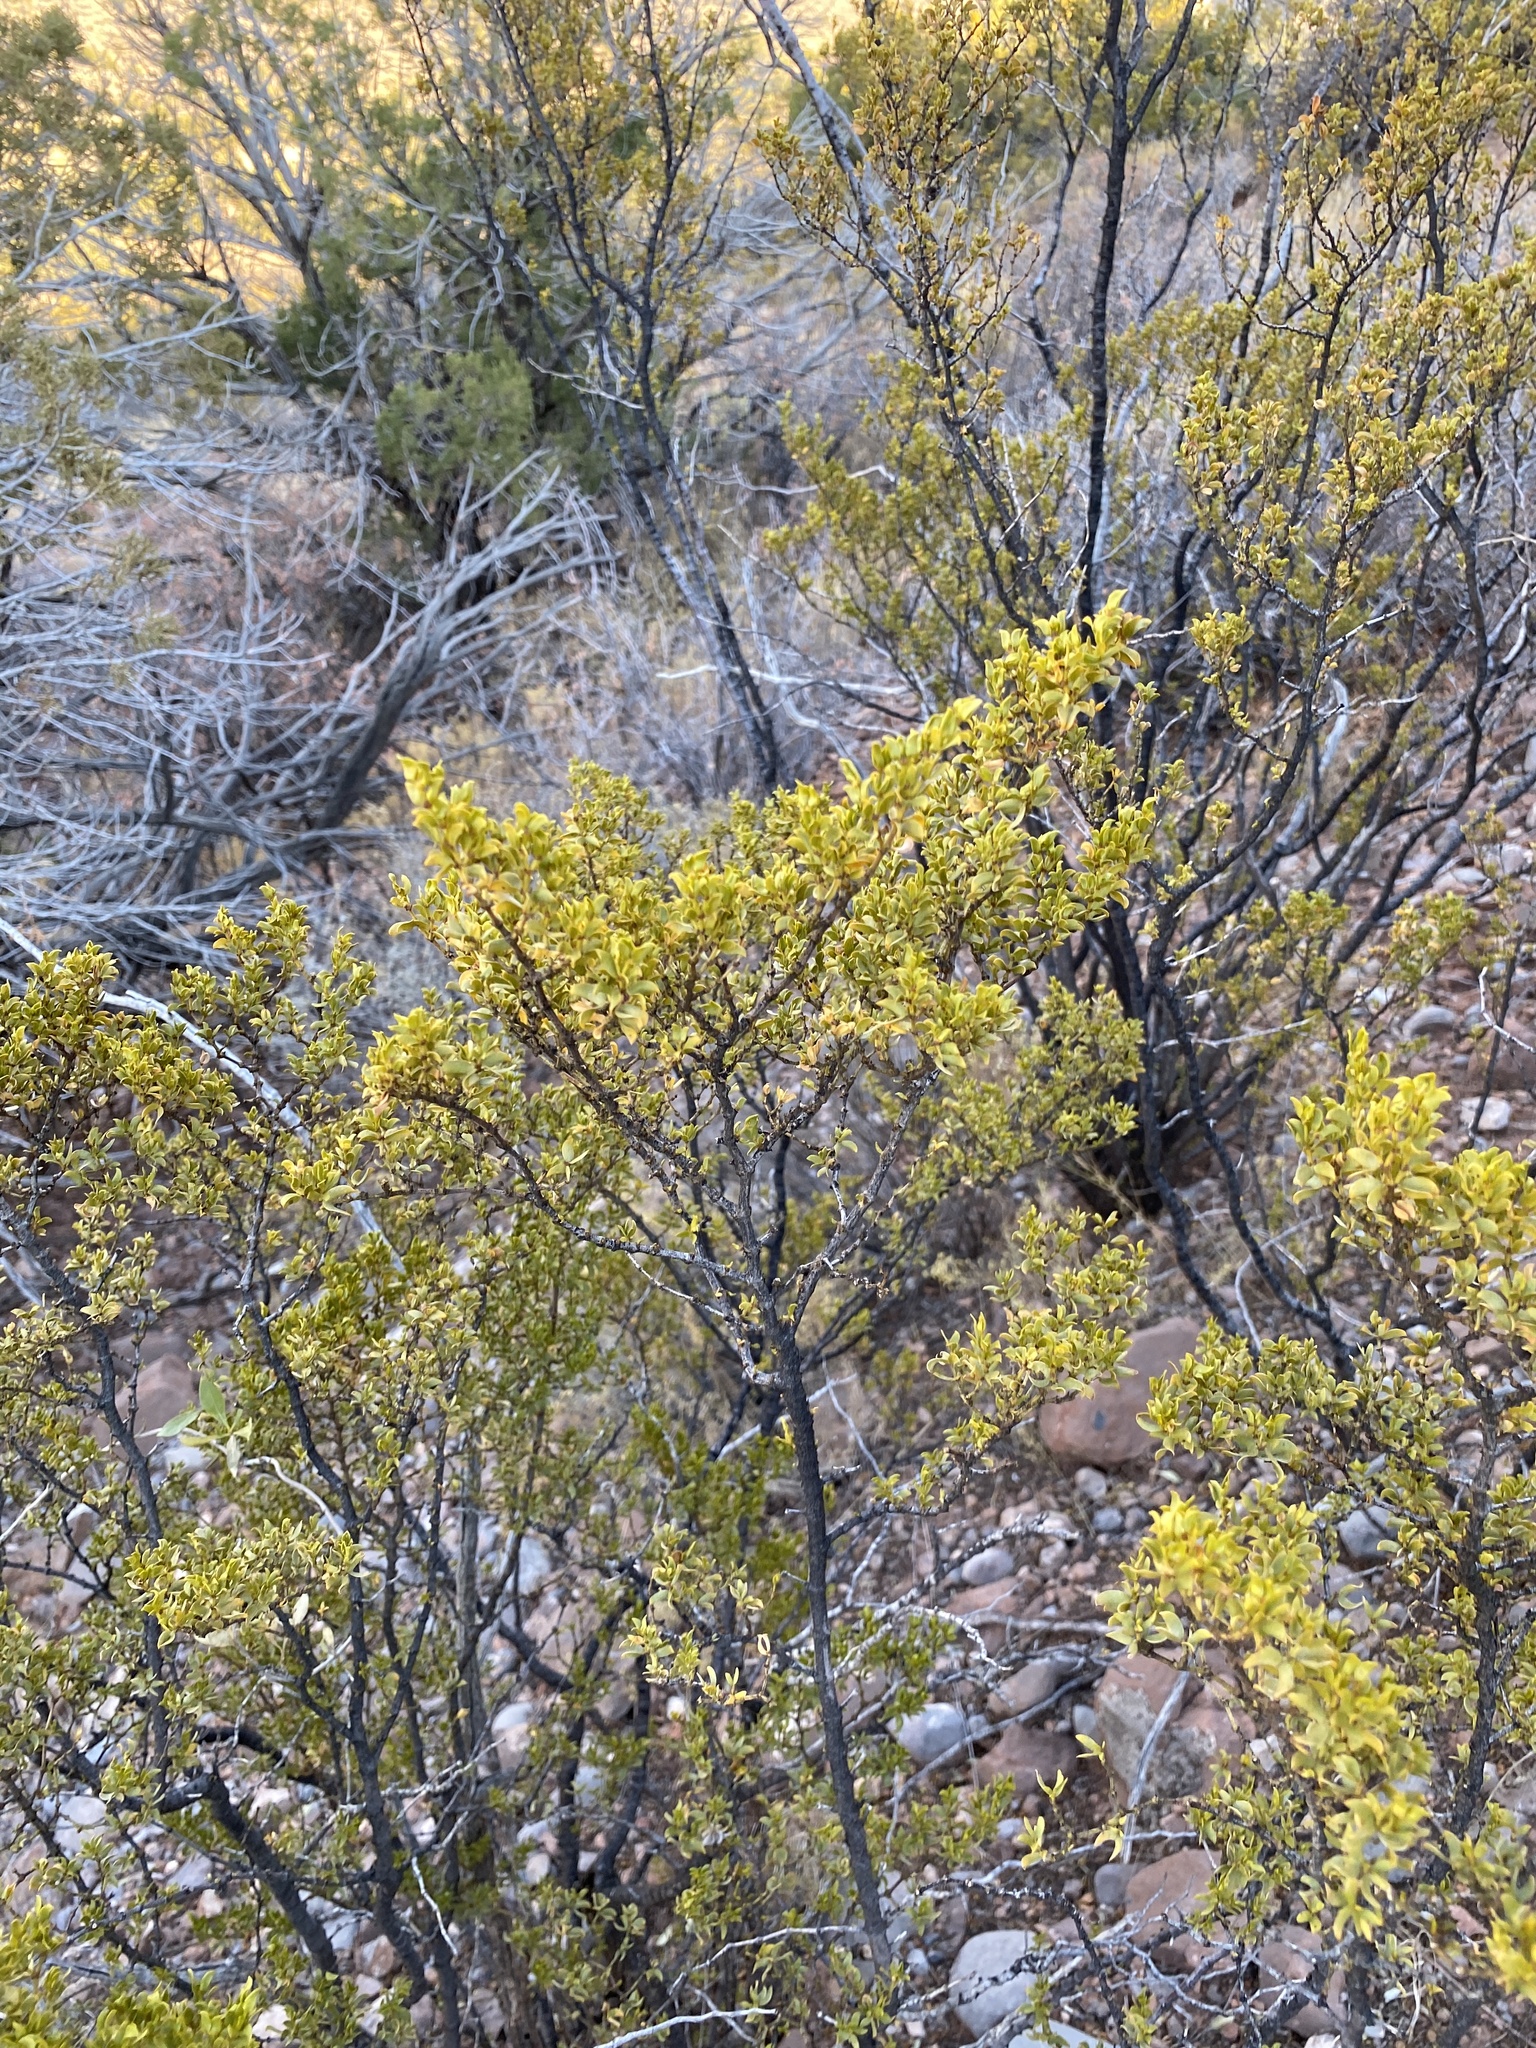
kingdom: Plantae
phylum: Tracheophyta
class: Magnoliopsida
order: Zygophyllales
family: Zygophyllaceae
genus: Larrea
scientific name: Larrea tridentata
